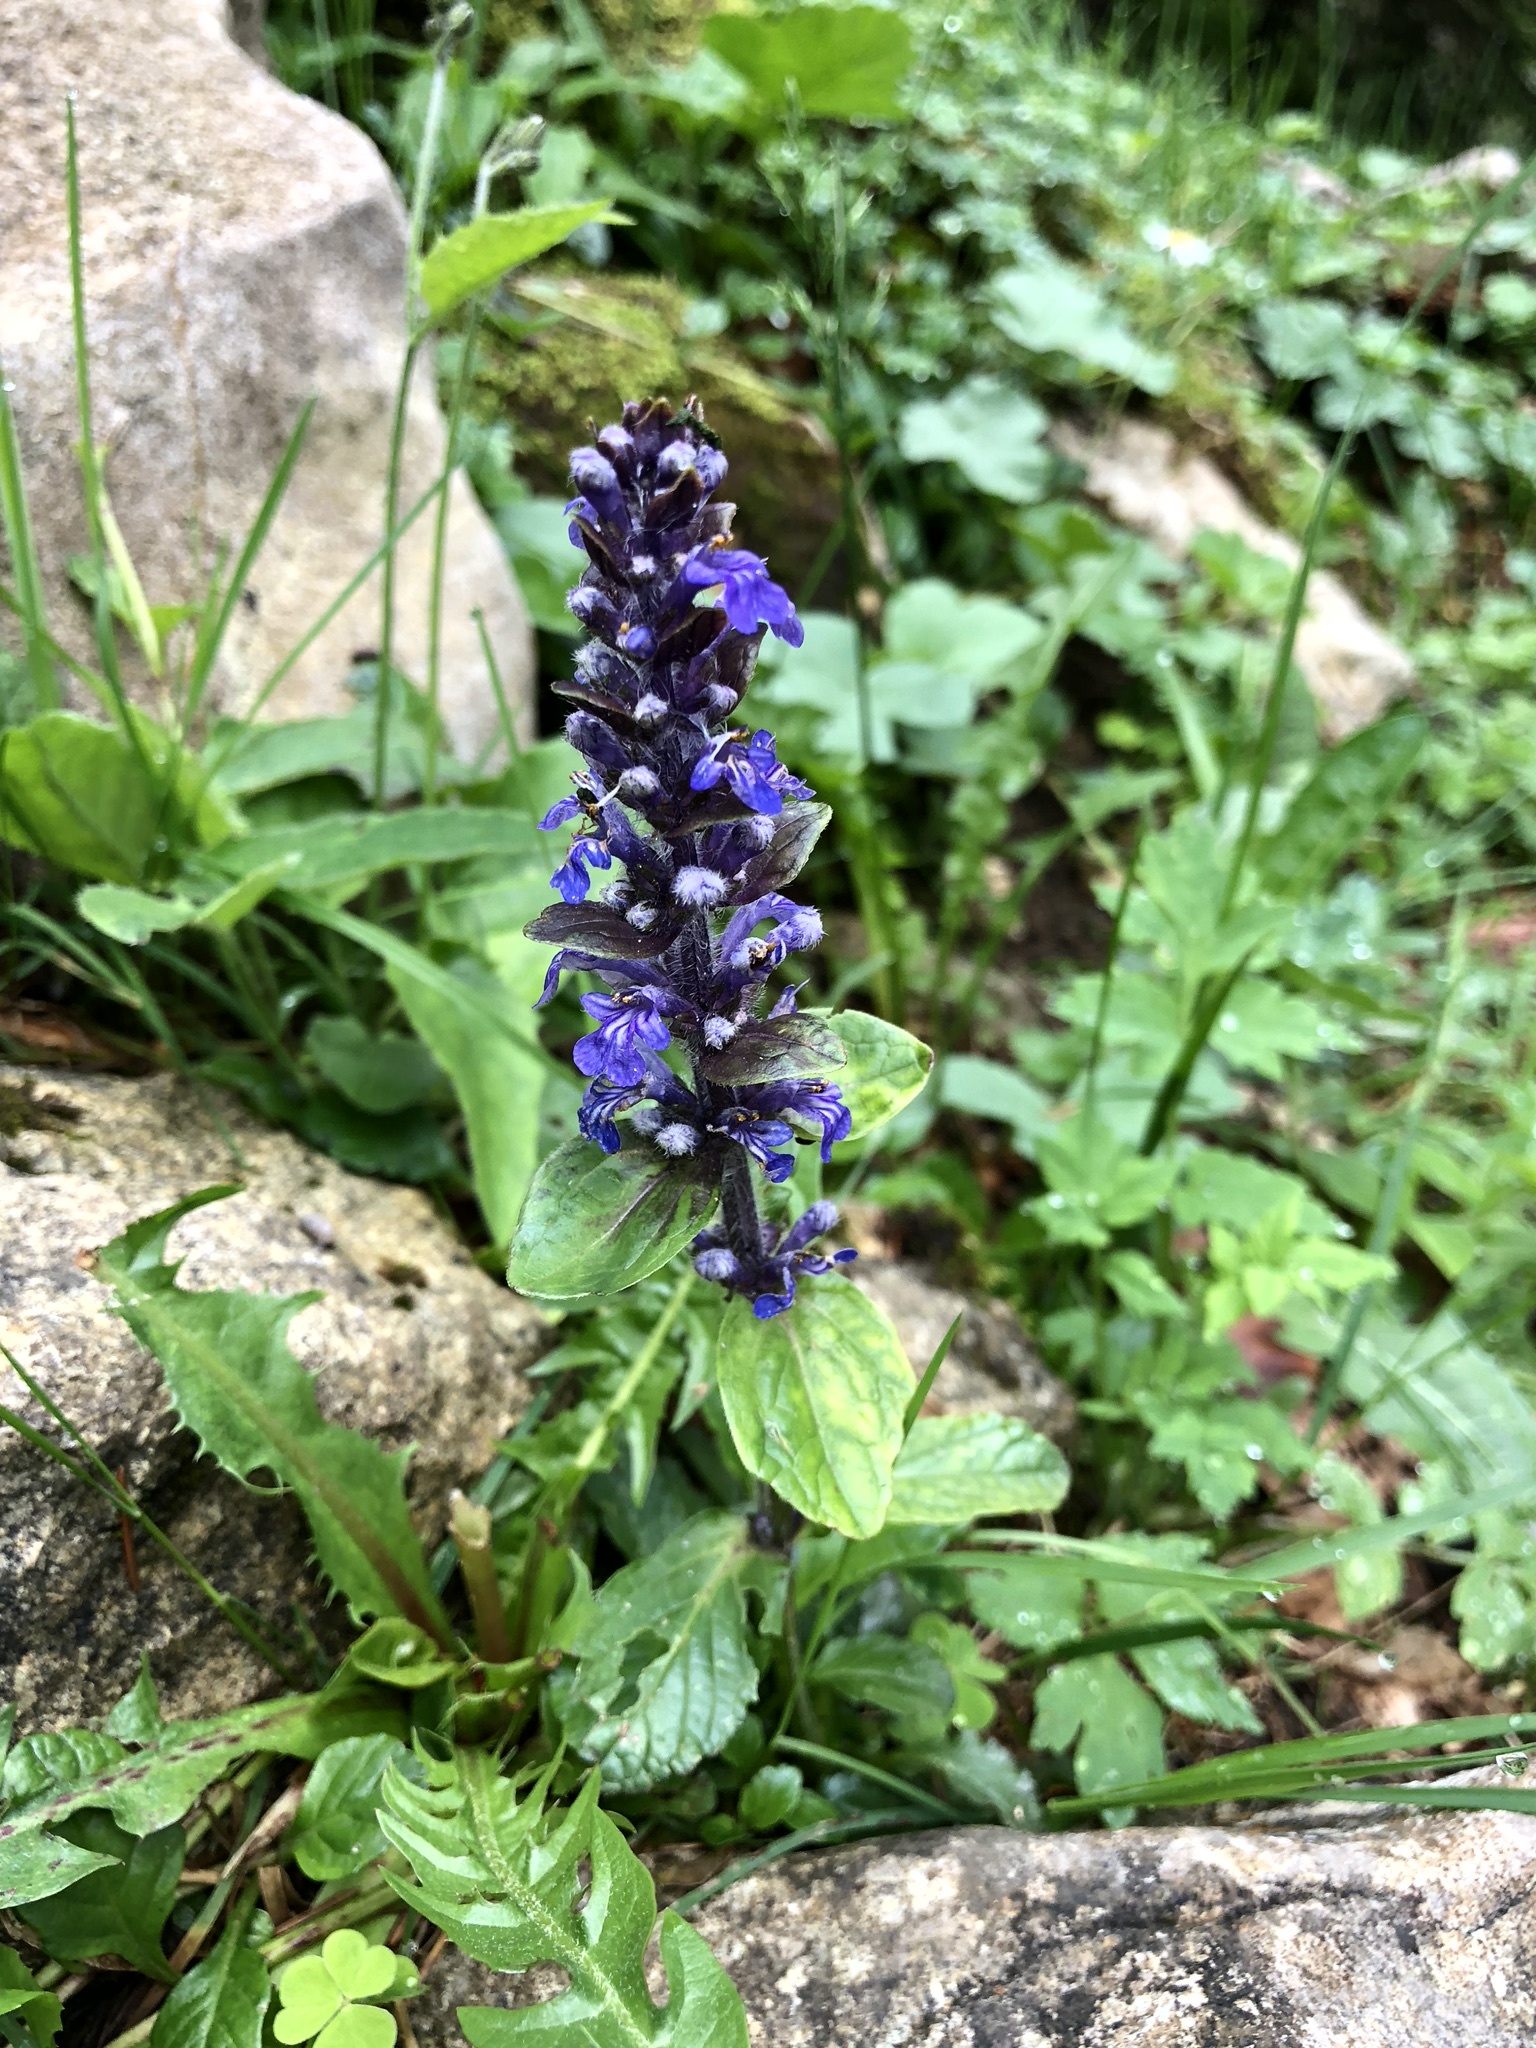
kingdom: Plantae
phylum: Tracheophyta
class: Magnoliopsida
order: Lamiales
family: Lamiaceae
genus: Ajuga
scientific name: Ajuga reptans
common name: Bugle
